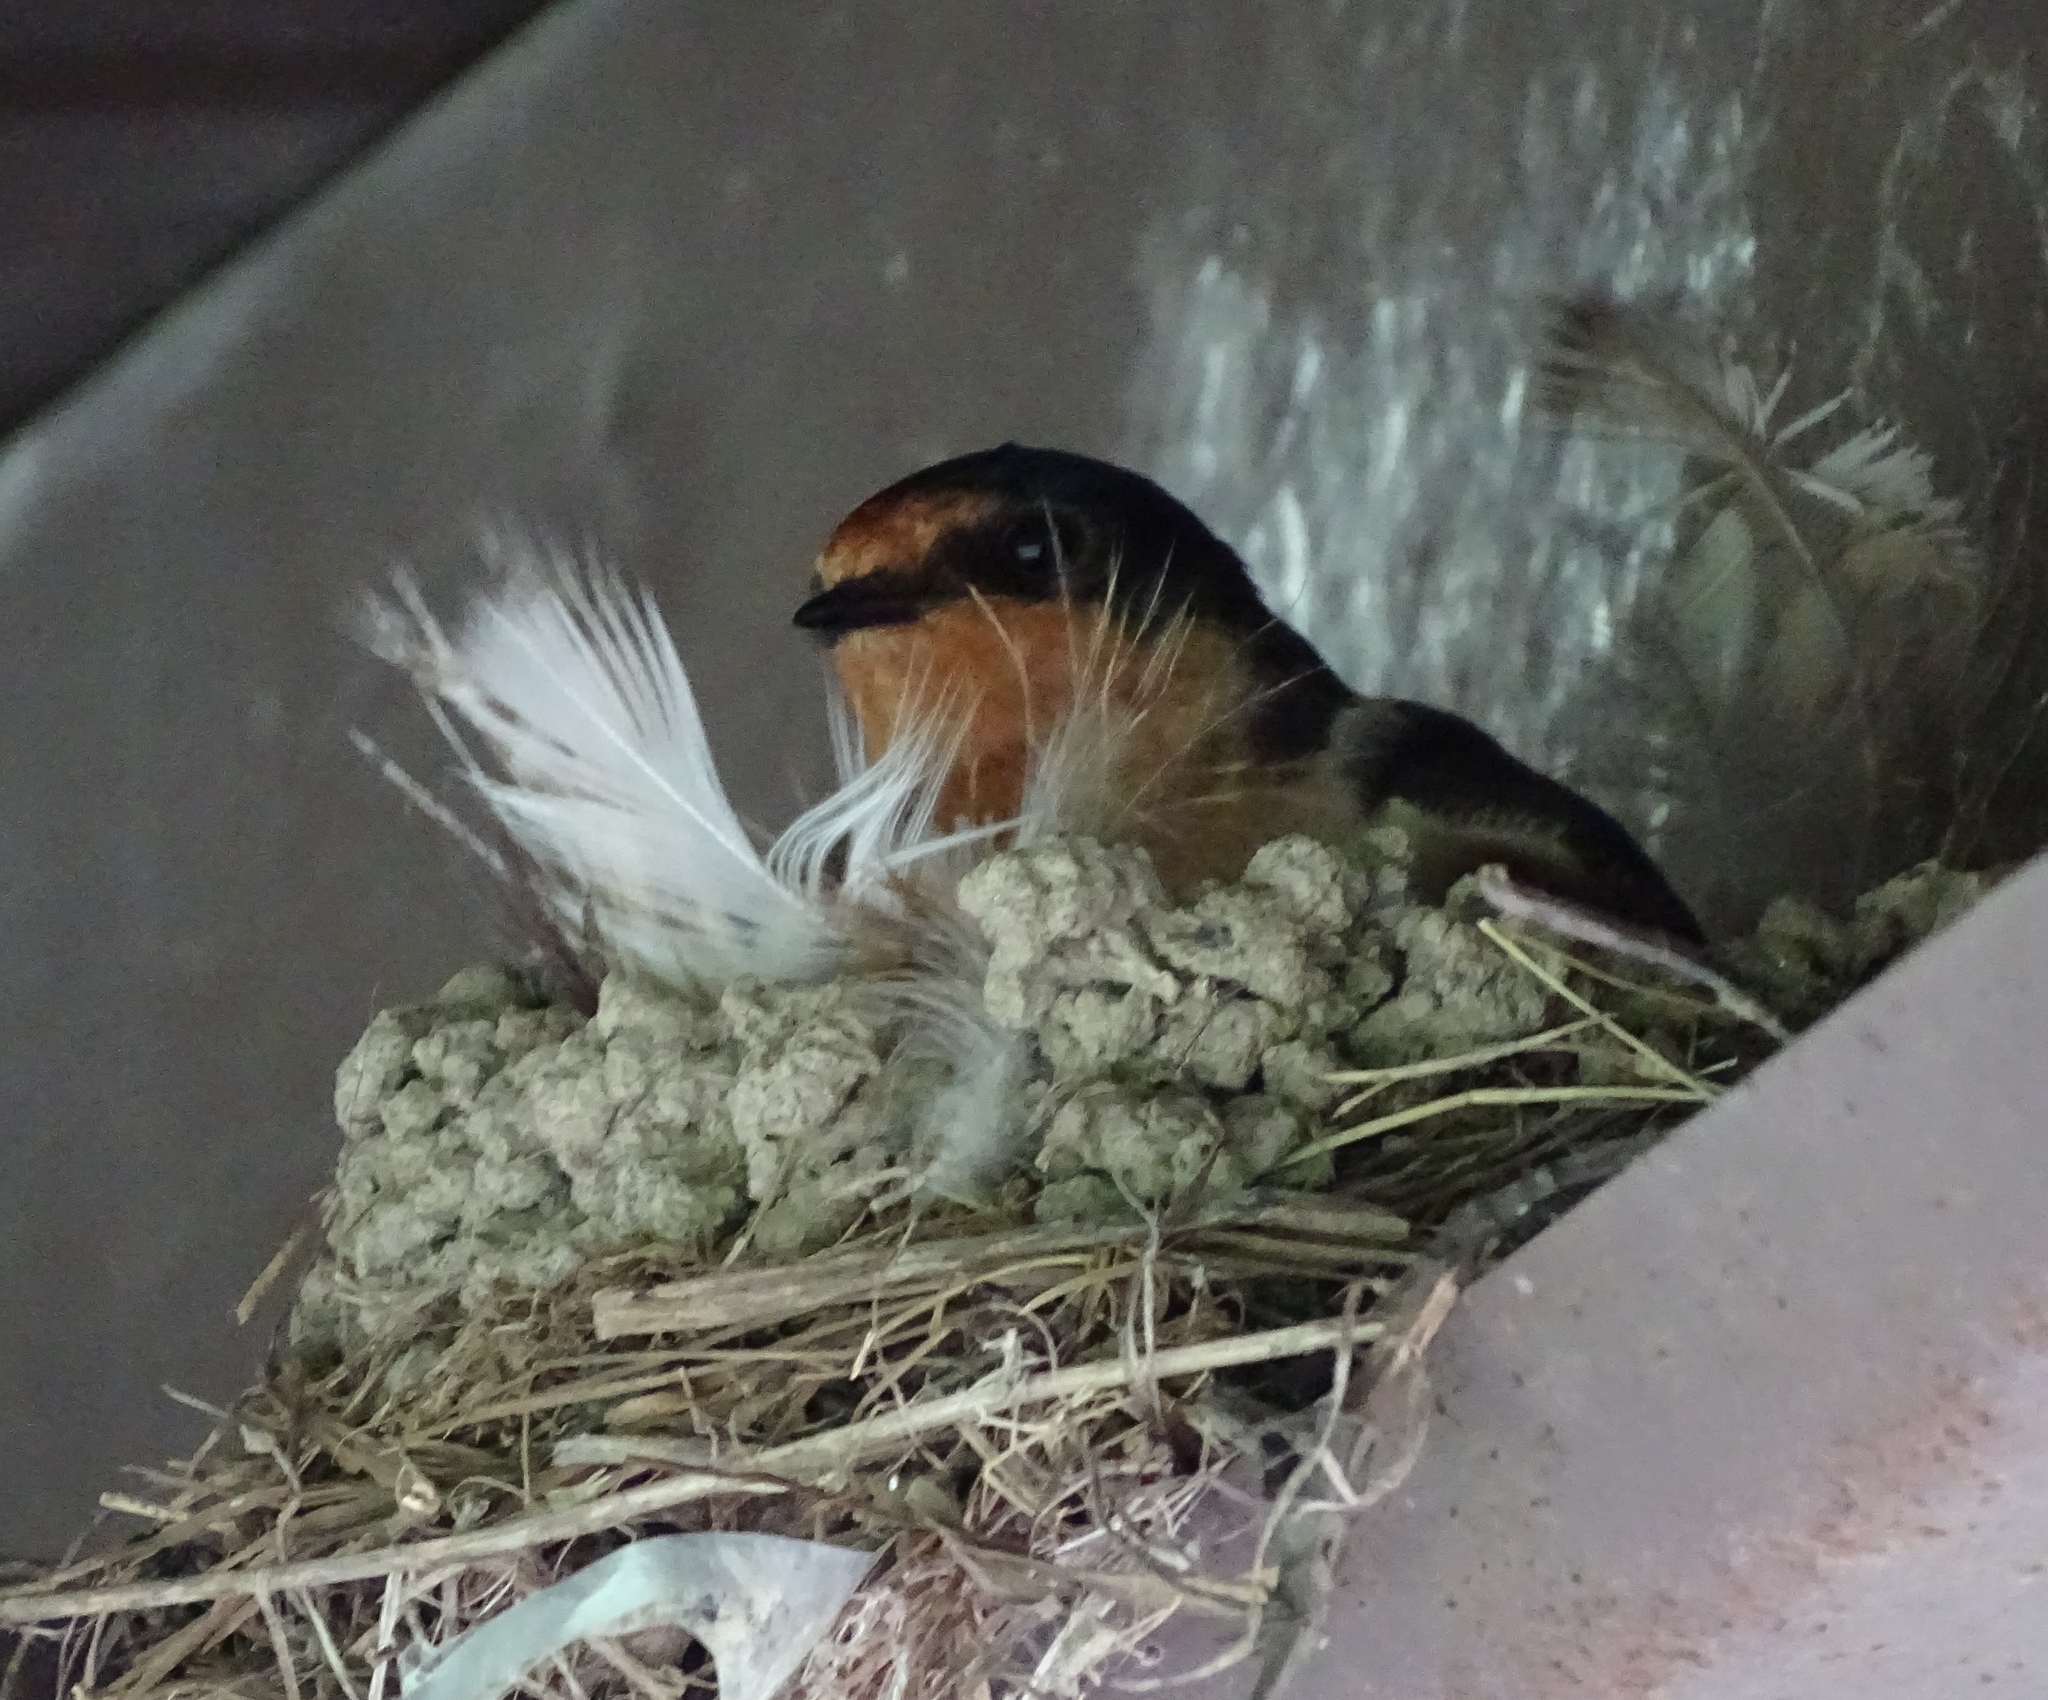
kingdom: Animalia
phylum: Chordata
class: Aves
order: Passeriformes
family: Hirundinidae
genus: Hirundo
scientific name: Hirundo rustica
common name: Barn swallow
